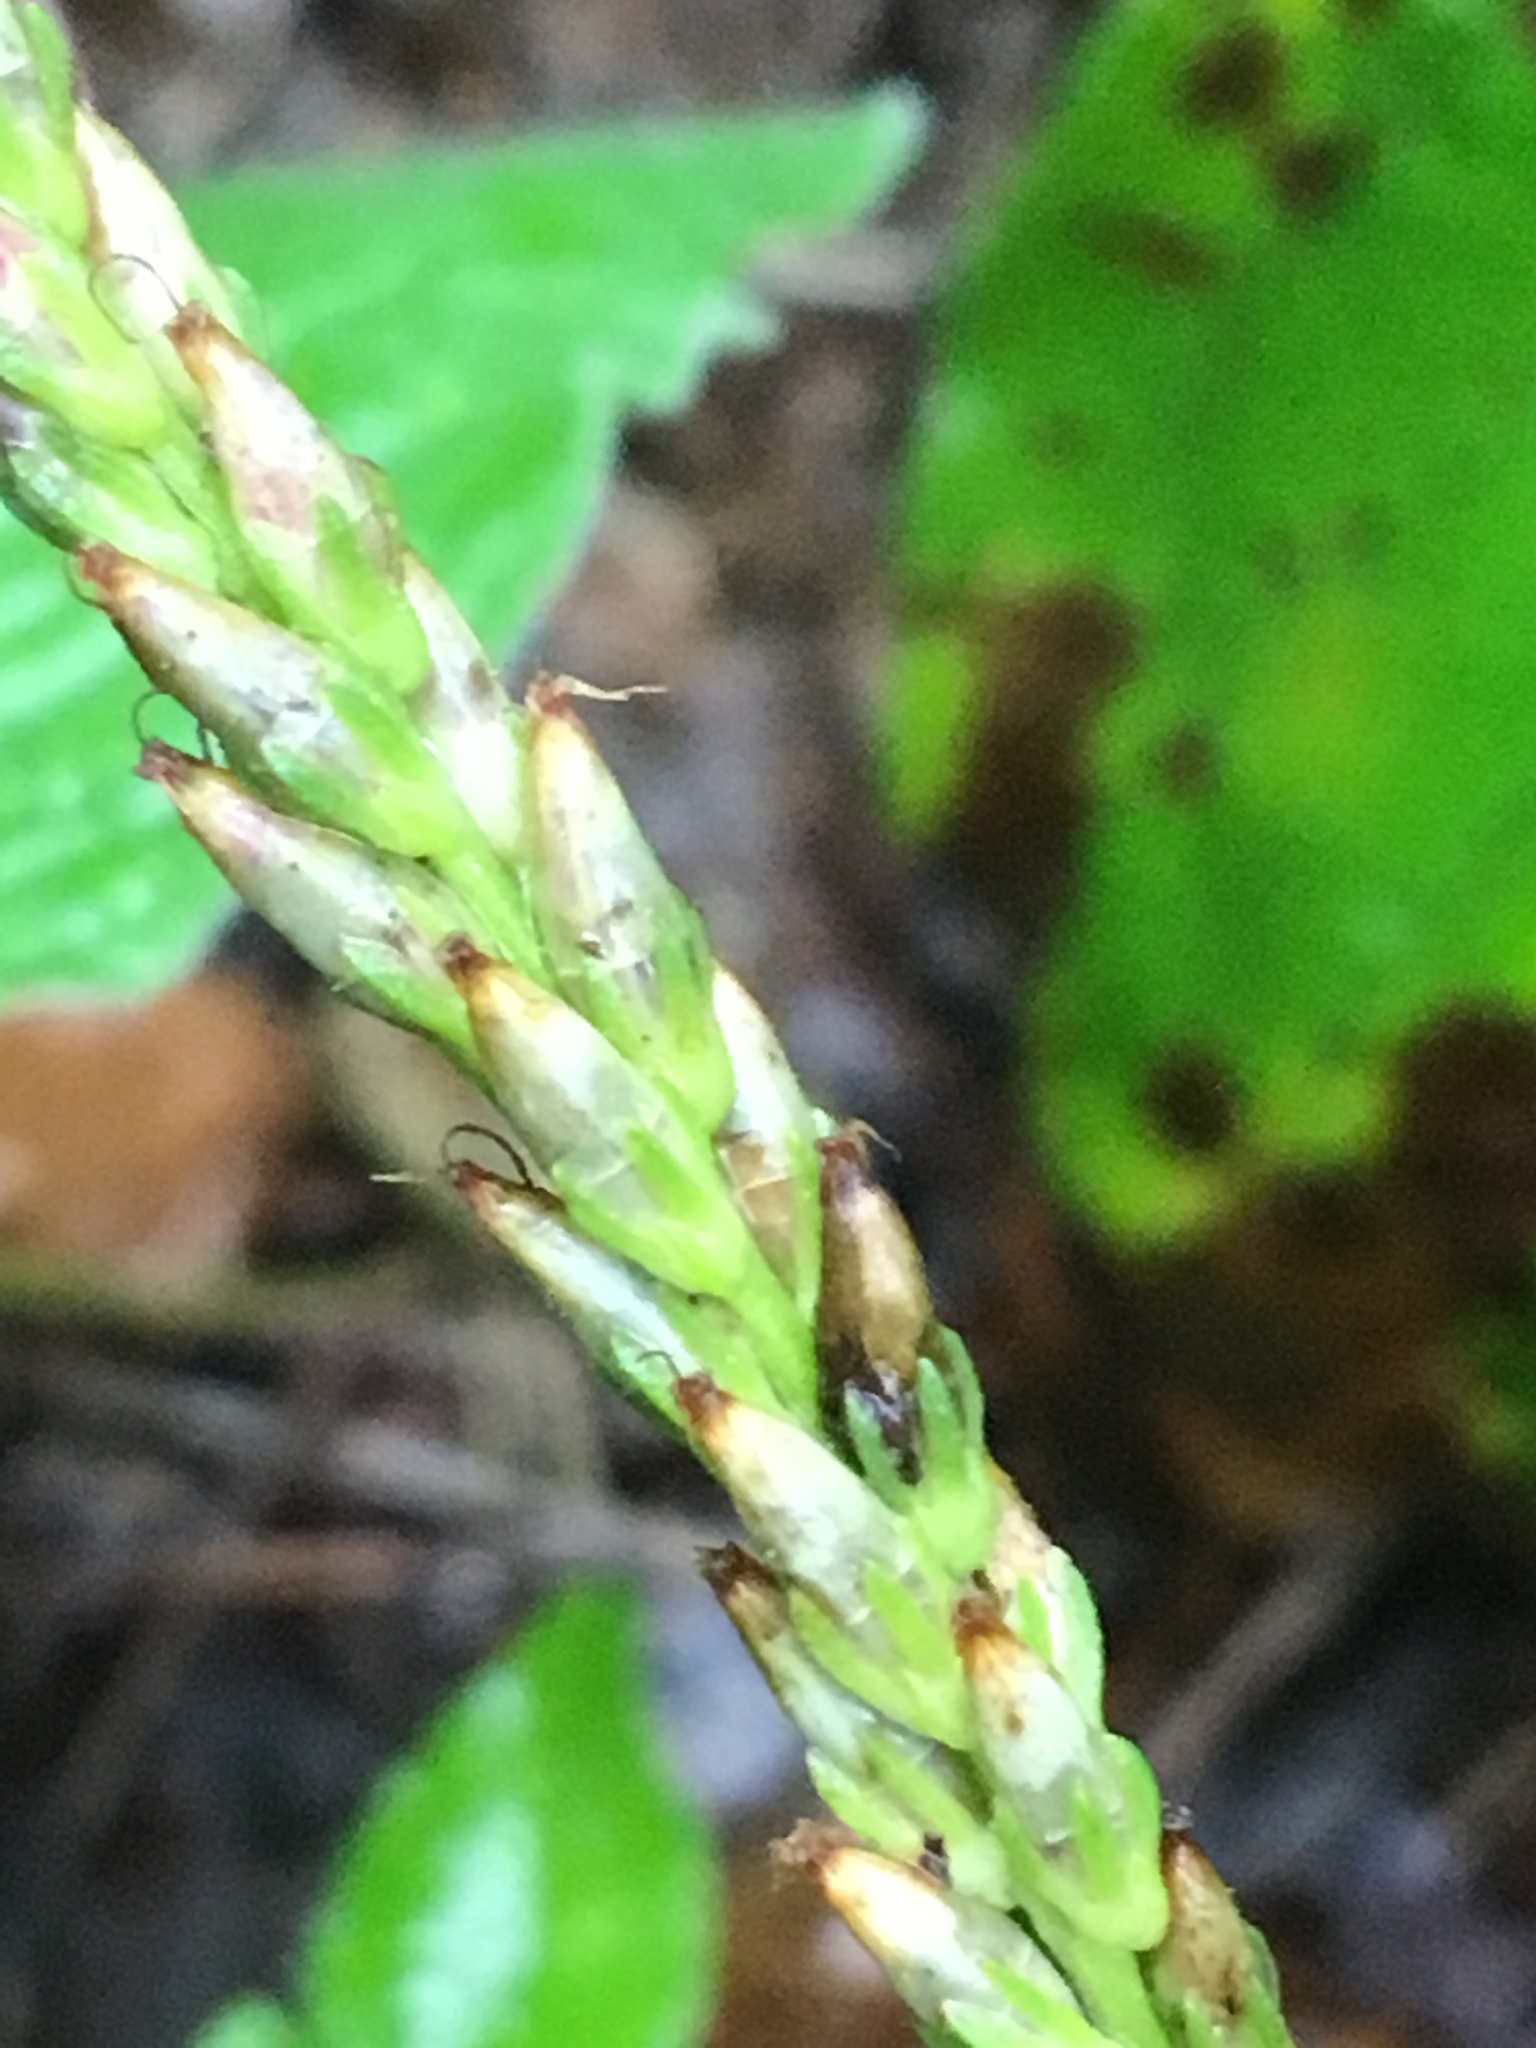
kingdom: Plantae
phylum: Tracheophyta
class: Magnoliopsida
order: Lamiales
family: Plantaginaceae
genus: Plantago
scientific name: Plantago rugelii
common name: American plantain
